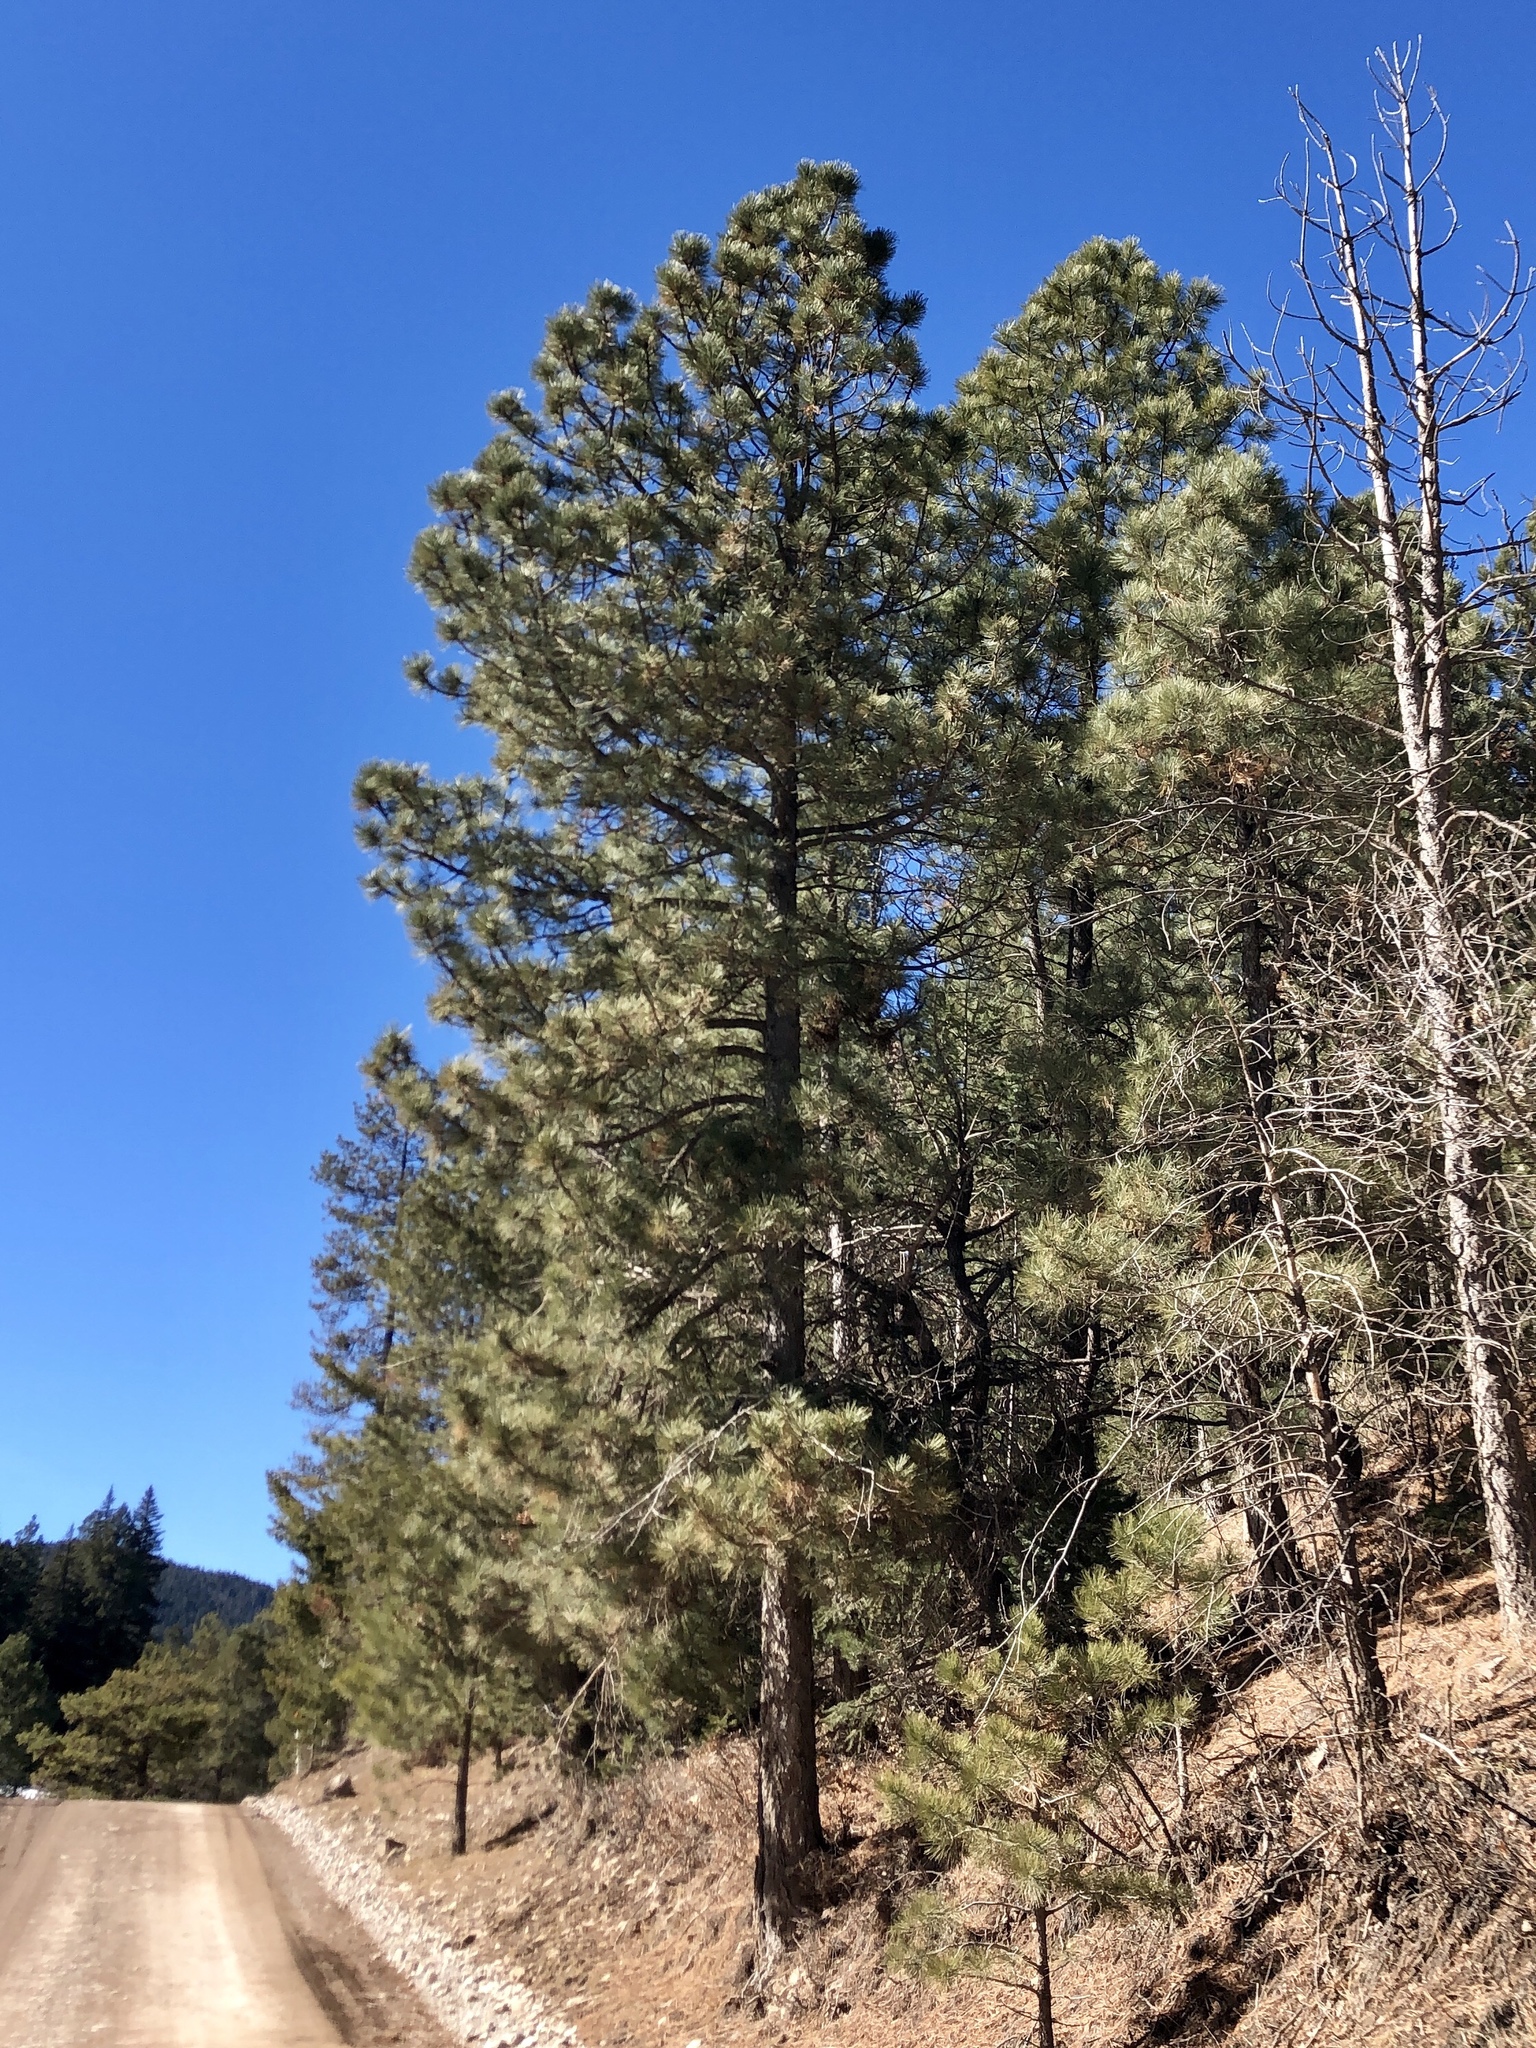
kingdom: Plantae
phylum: Tracheophyta
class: Pinopsida
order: Pinales
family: Pinaceae
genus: Pinus
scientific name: Pinus ponderosa
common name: Western yellow-pine
